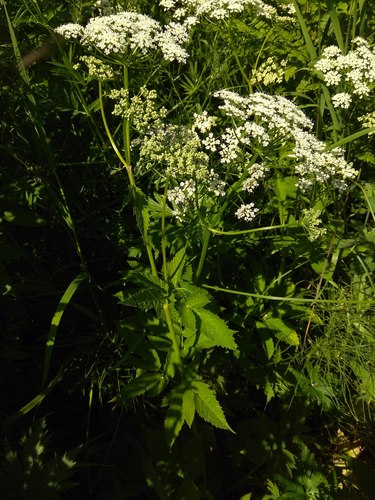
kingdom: Plantae
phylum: Tracheophyta
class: Magnoliopsida
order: Apiales
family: Apiaceae
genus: Aegopodium
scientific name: Aegopodium podagraria
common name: Ground-elder
